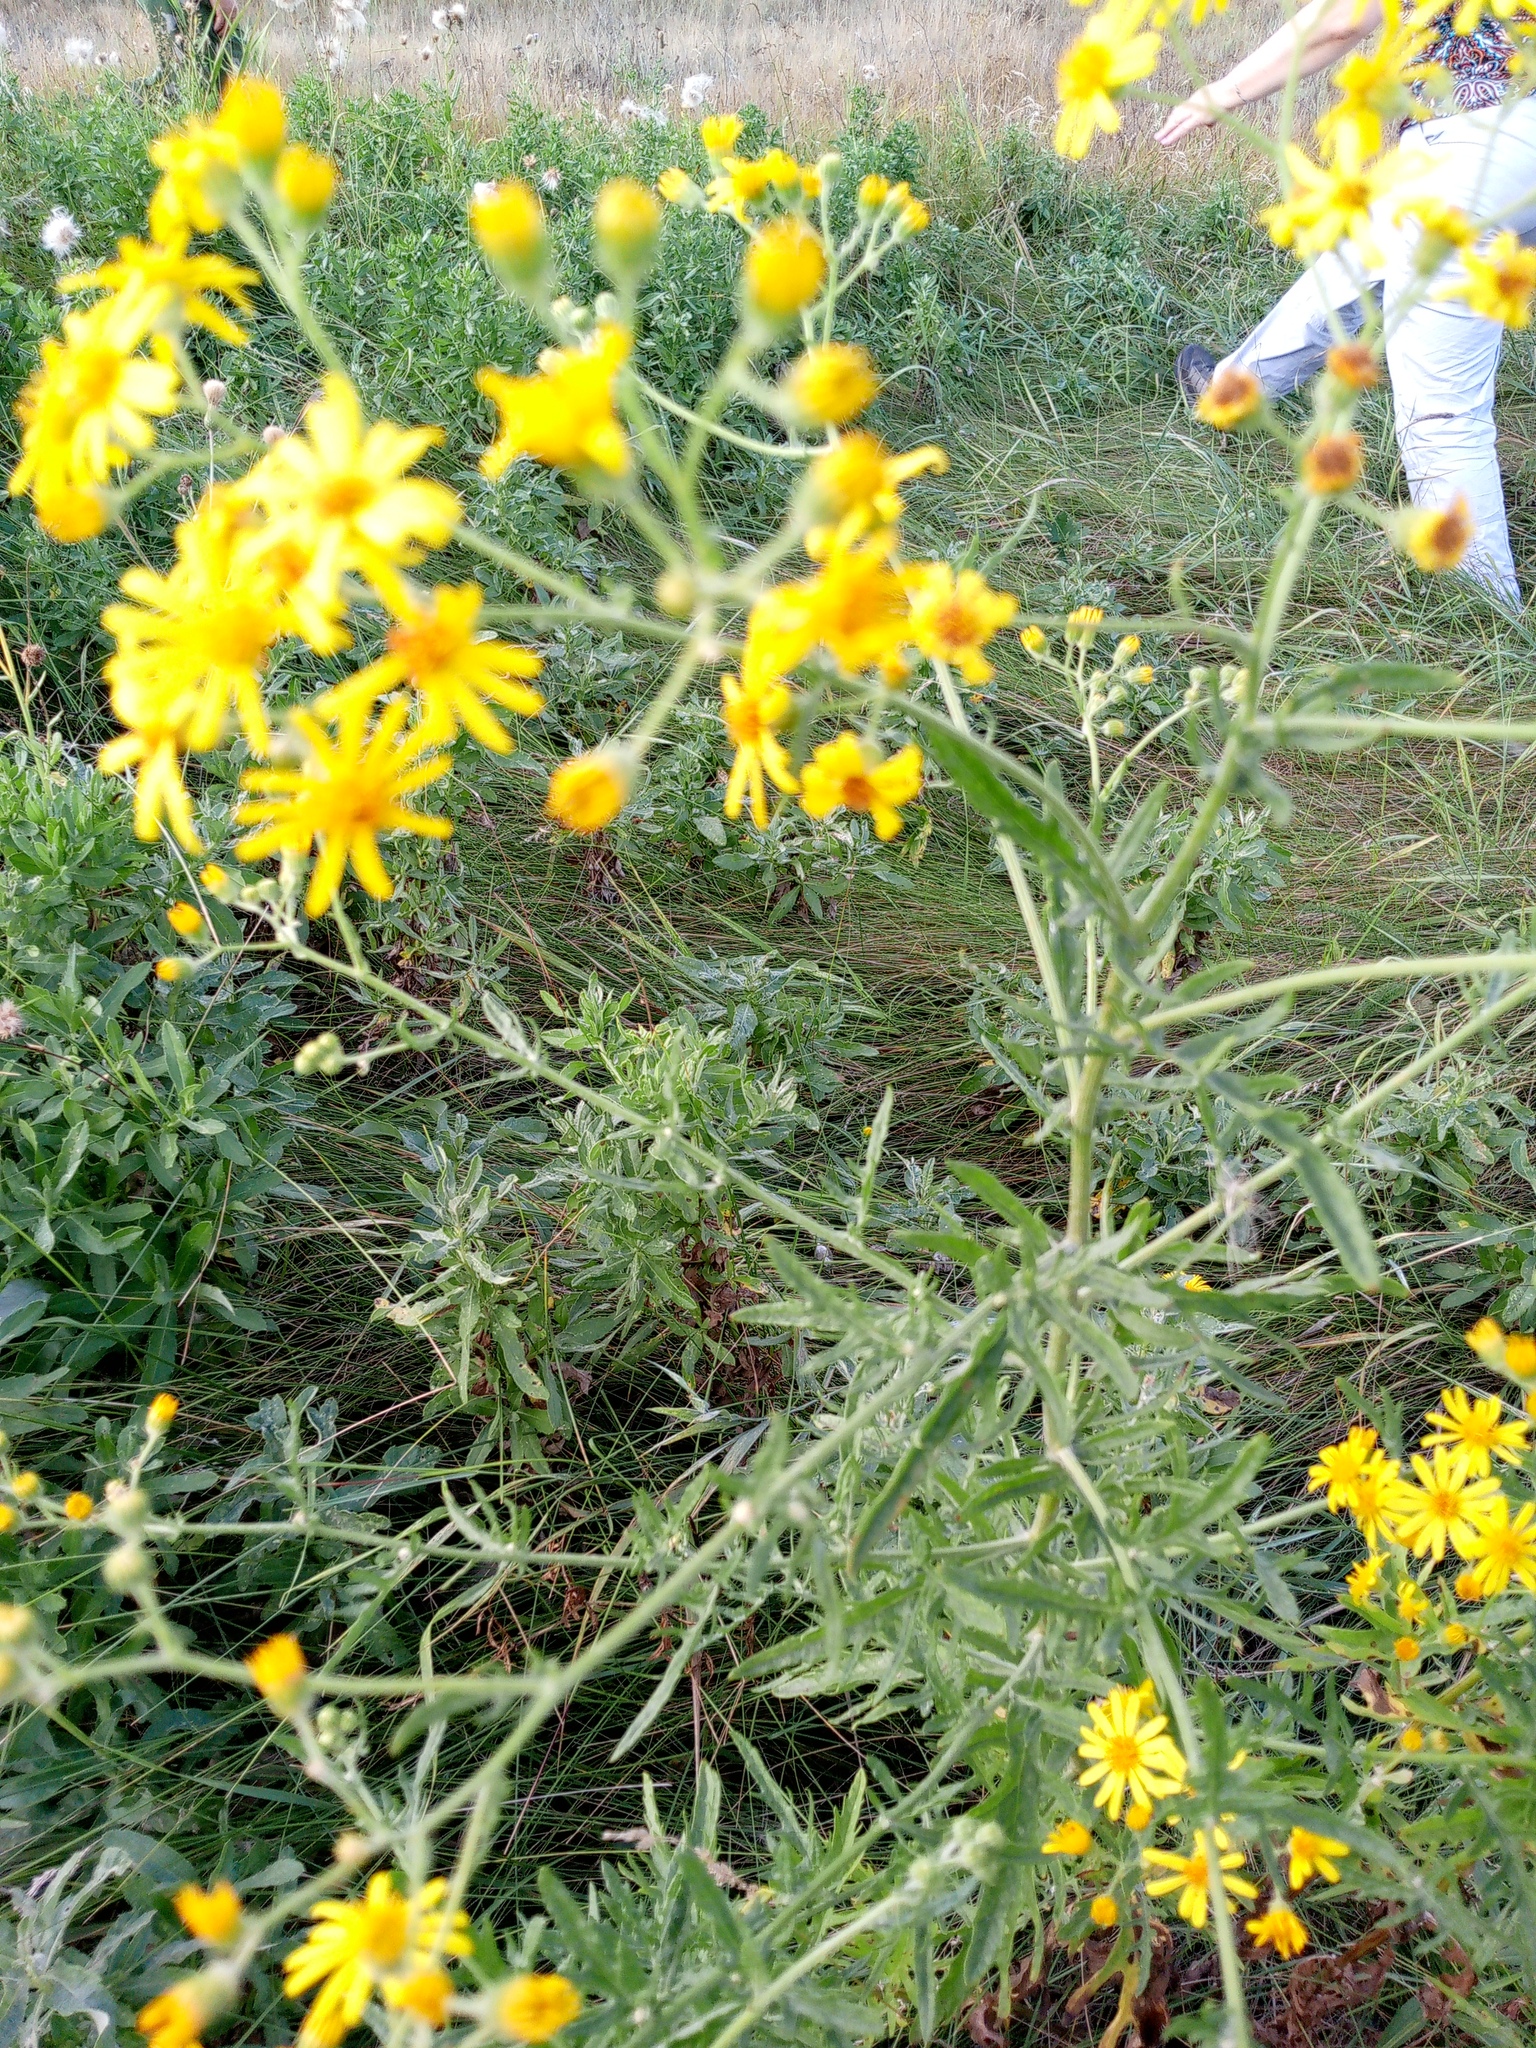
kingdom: Plantae
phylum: Tracheophyta
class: Magnoliopsida
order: Asterales
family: Asteraceae
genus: Jacobaea
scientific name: Jacobaea erucifolia
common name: Hoary ragwort
